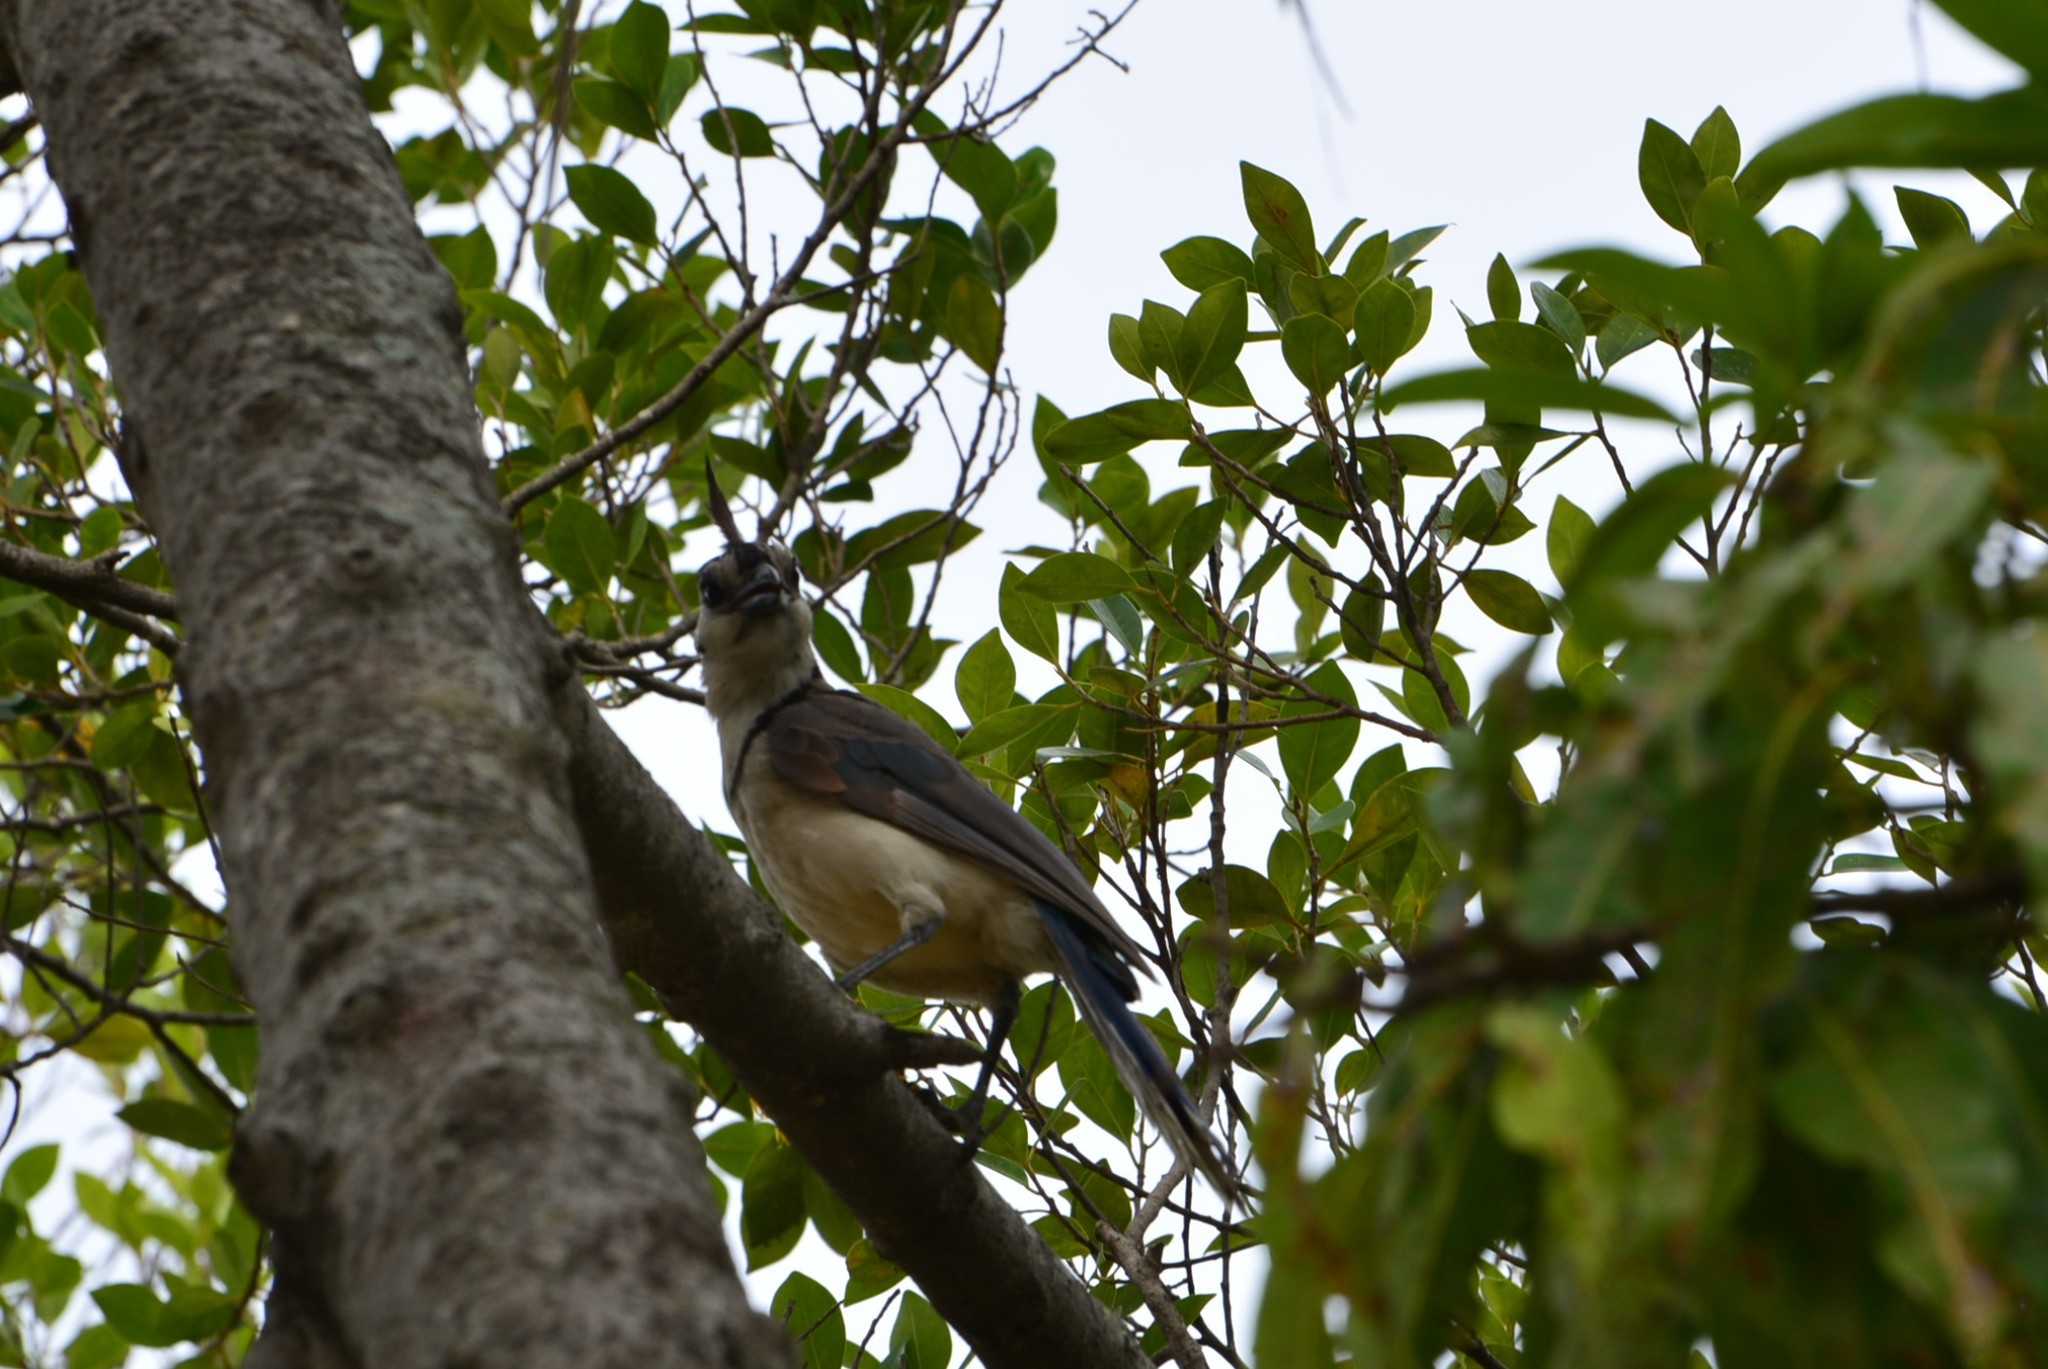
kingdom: Animalia
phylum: Chordata
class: Aves
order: Passeriformes
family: Corvidae
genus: Calocitta
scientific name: Calocitta formosa
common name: White-throated magpie-jay
